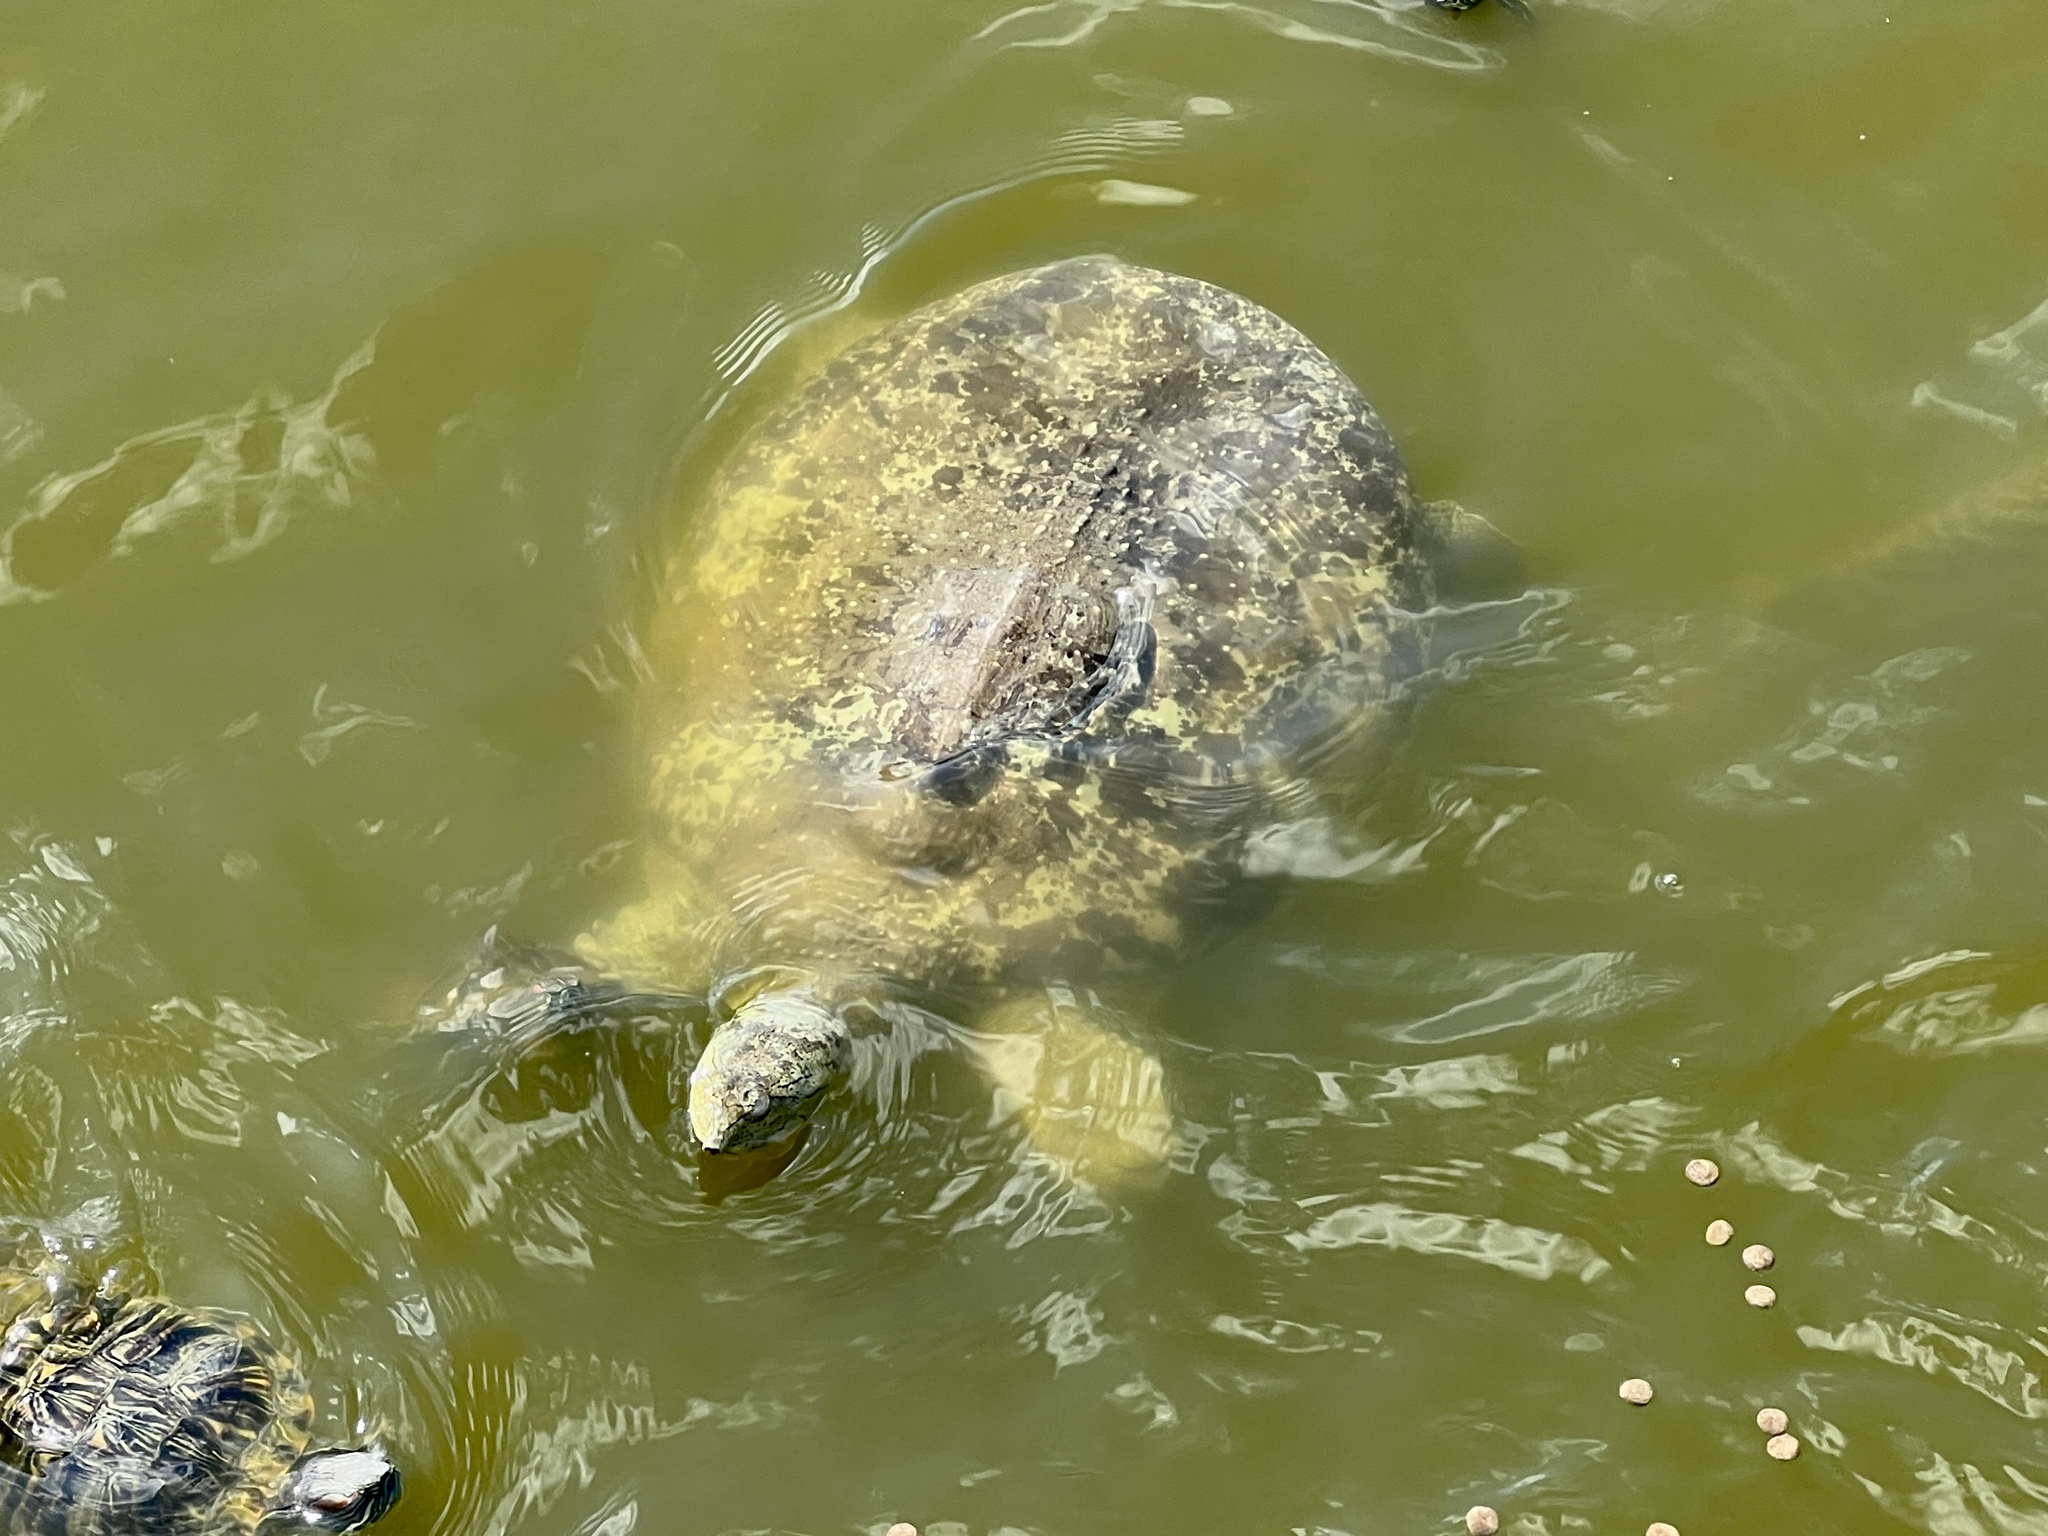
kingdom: Animalia
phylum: Chordata
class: Testudines
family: Trionychidae
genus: Apalone
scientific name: Apalone spinifera
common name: Spiny softshell turtle
